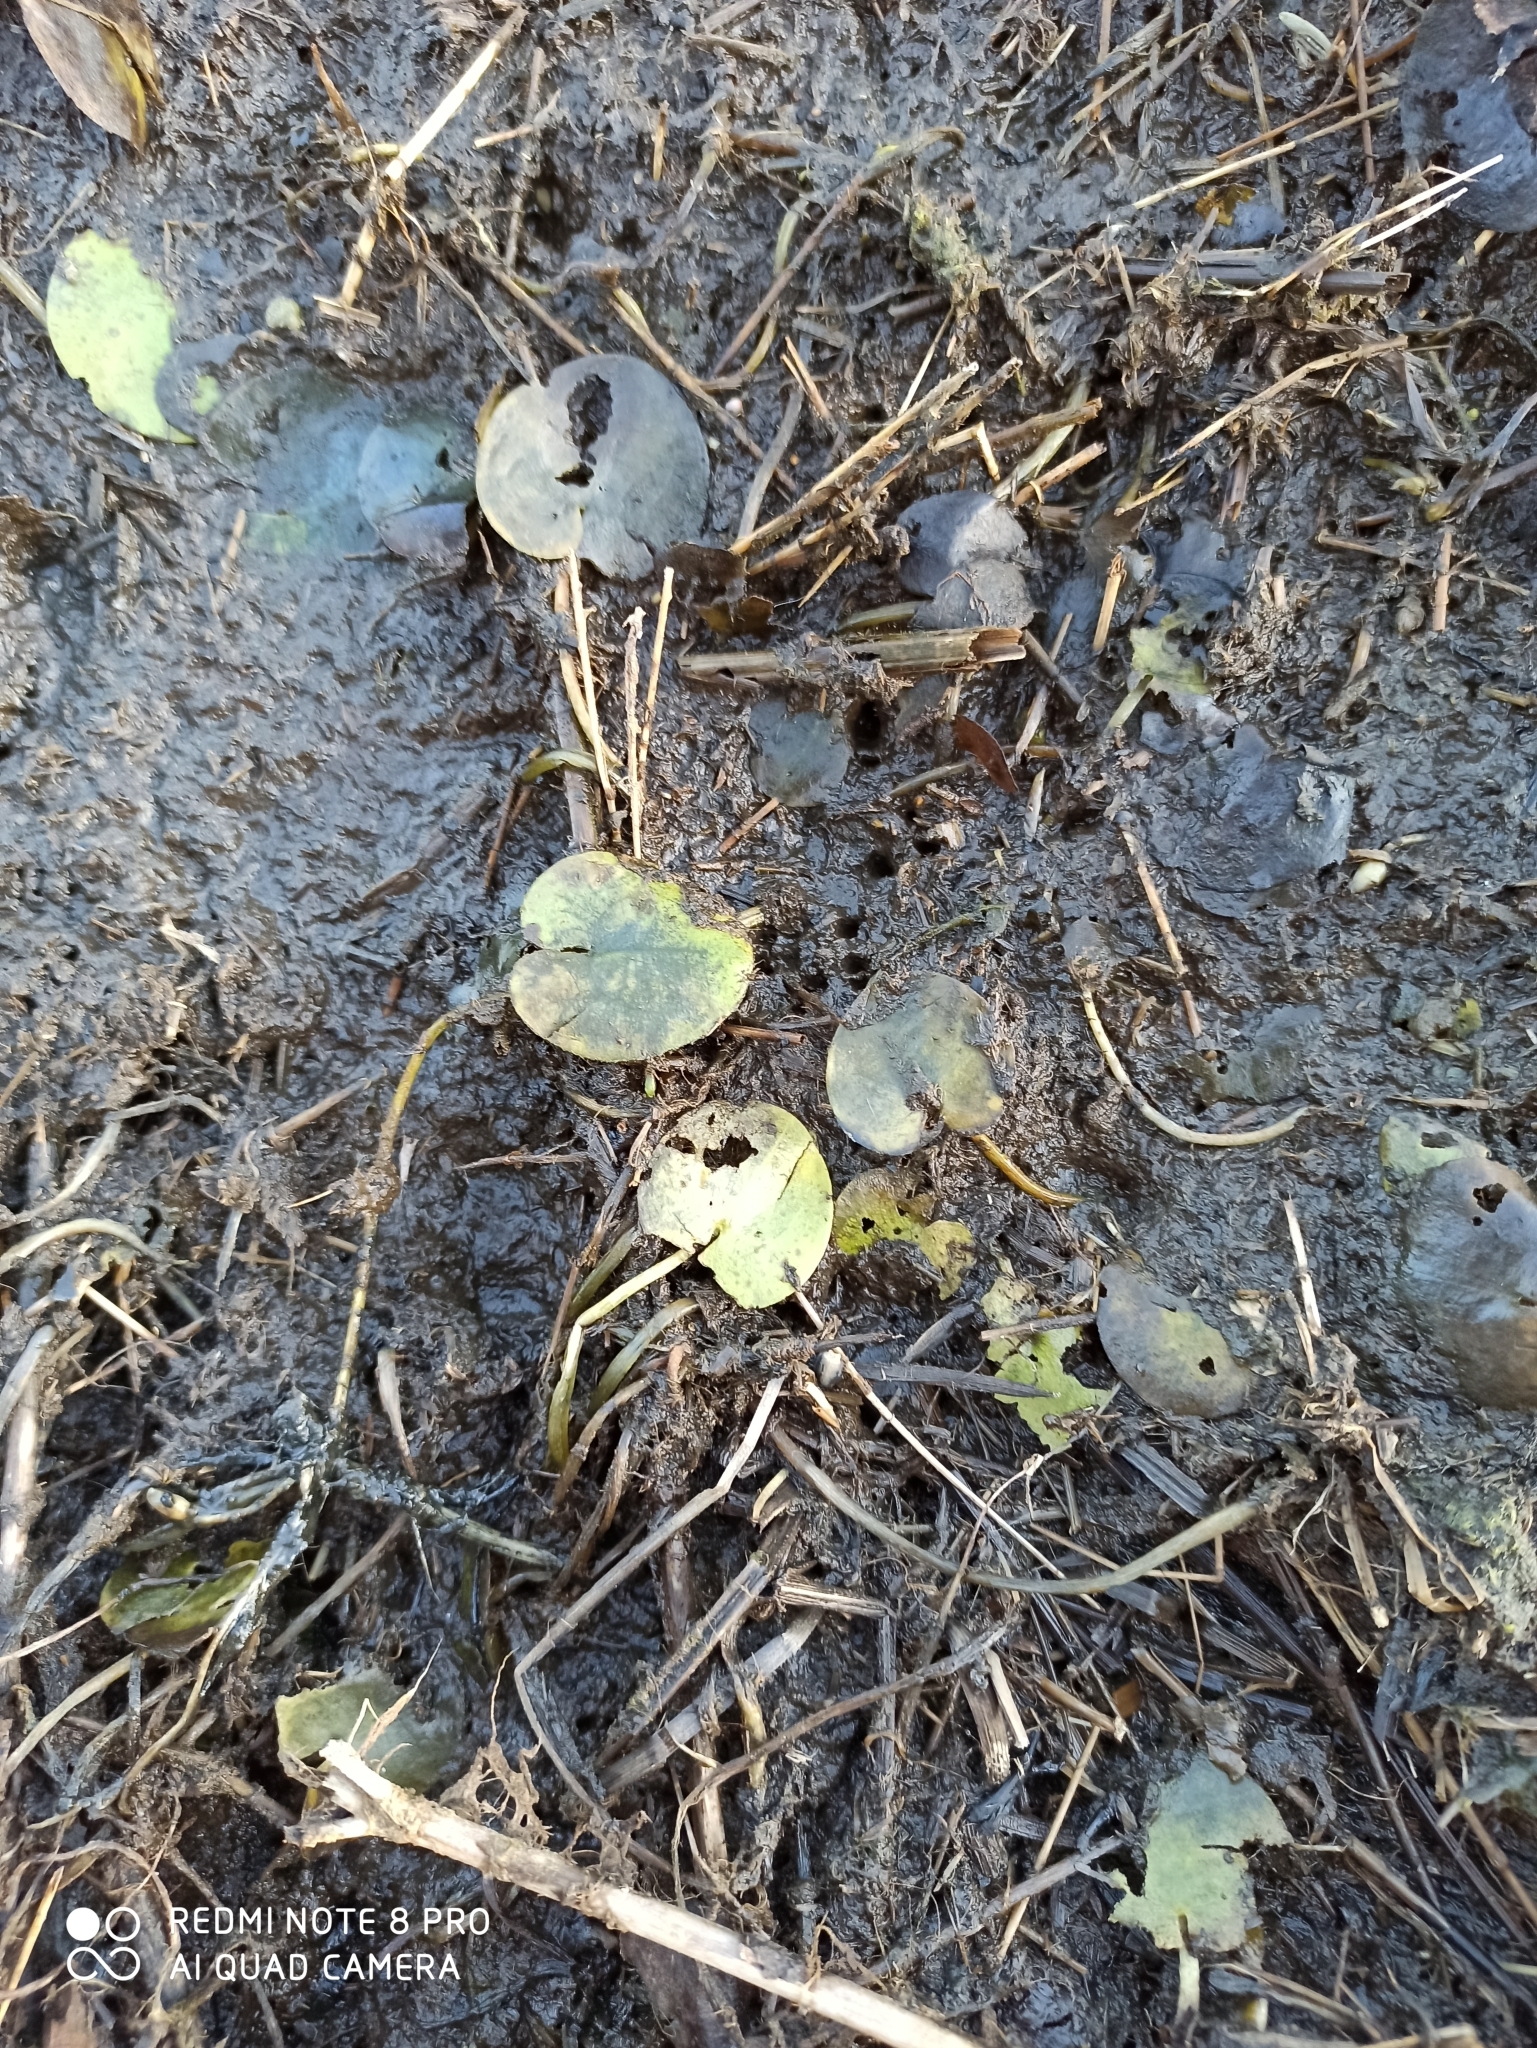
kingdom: Plantae
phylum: Tracheophyta
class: Liliopsida
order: Alismatales
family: Hydrocharitaceae
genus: Hydrocharis
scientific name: Hydrocharis morsus-ranae
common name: Frogbit
